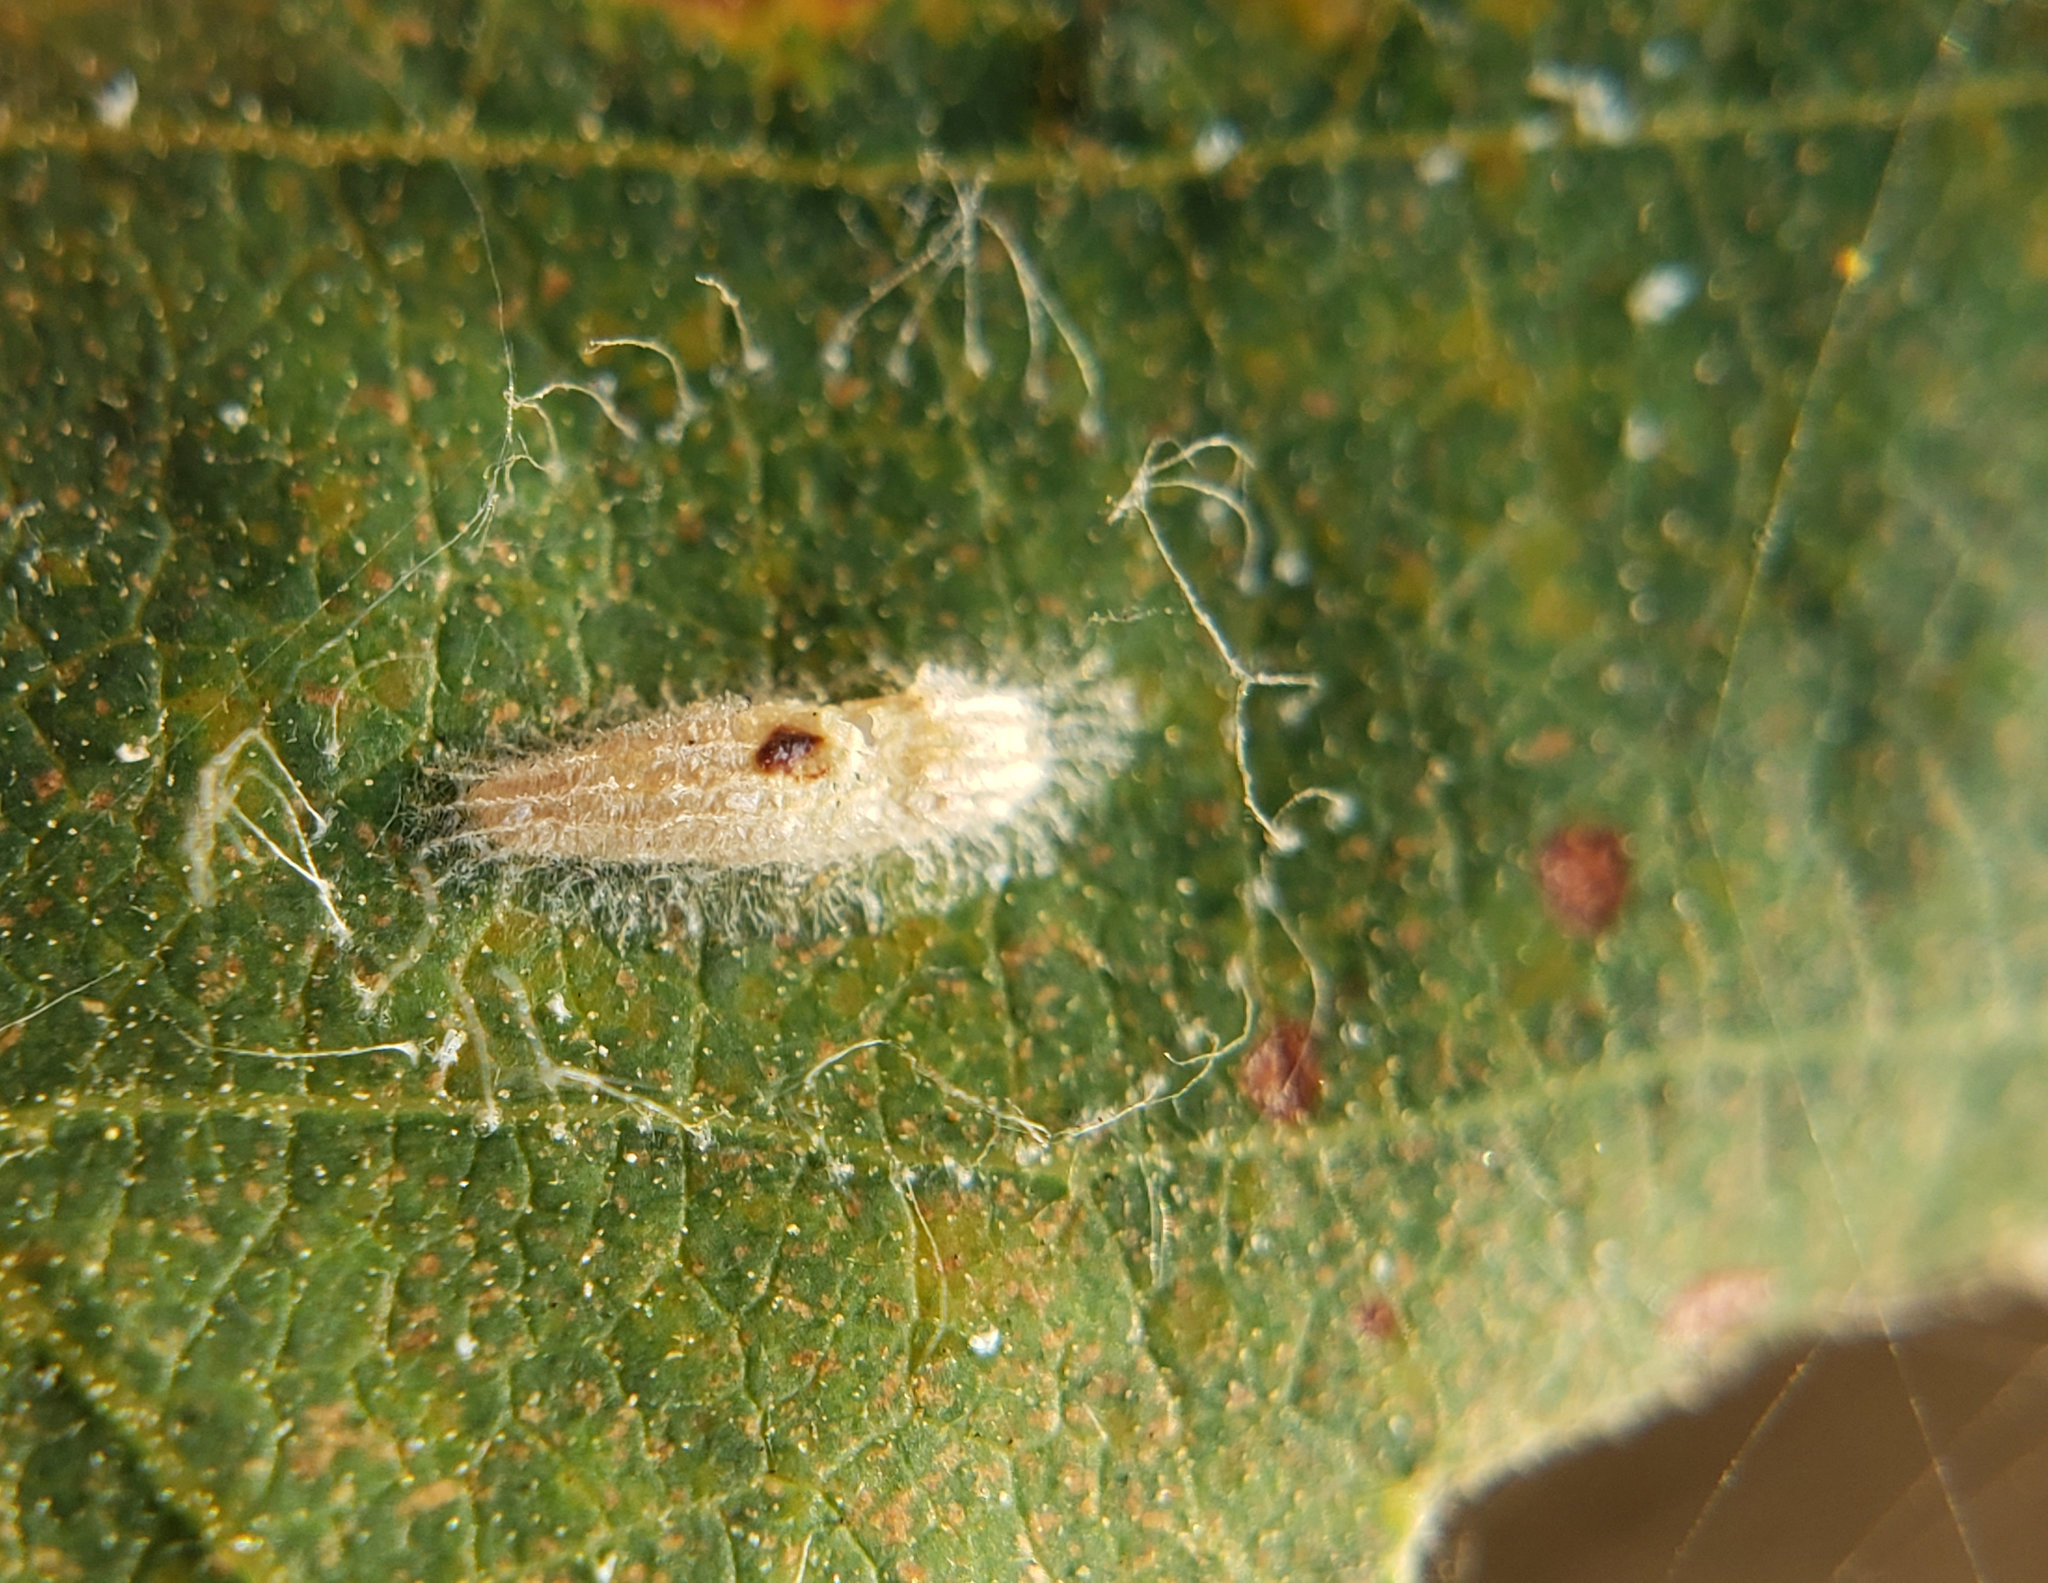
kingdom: Animalia
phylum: Arthropoda
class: Insecta
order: Lepidoptera
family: Bucculatricidae
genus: Bucculatrix
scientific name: Bucculatrix albertiella
